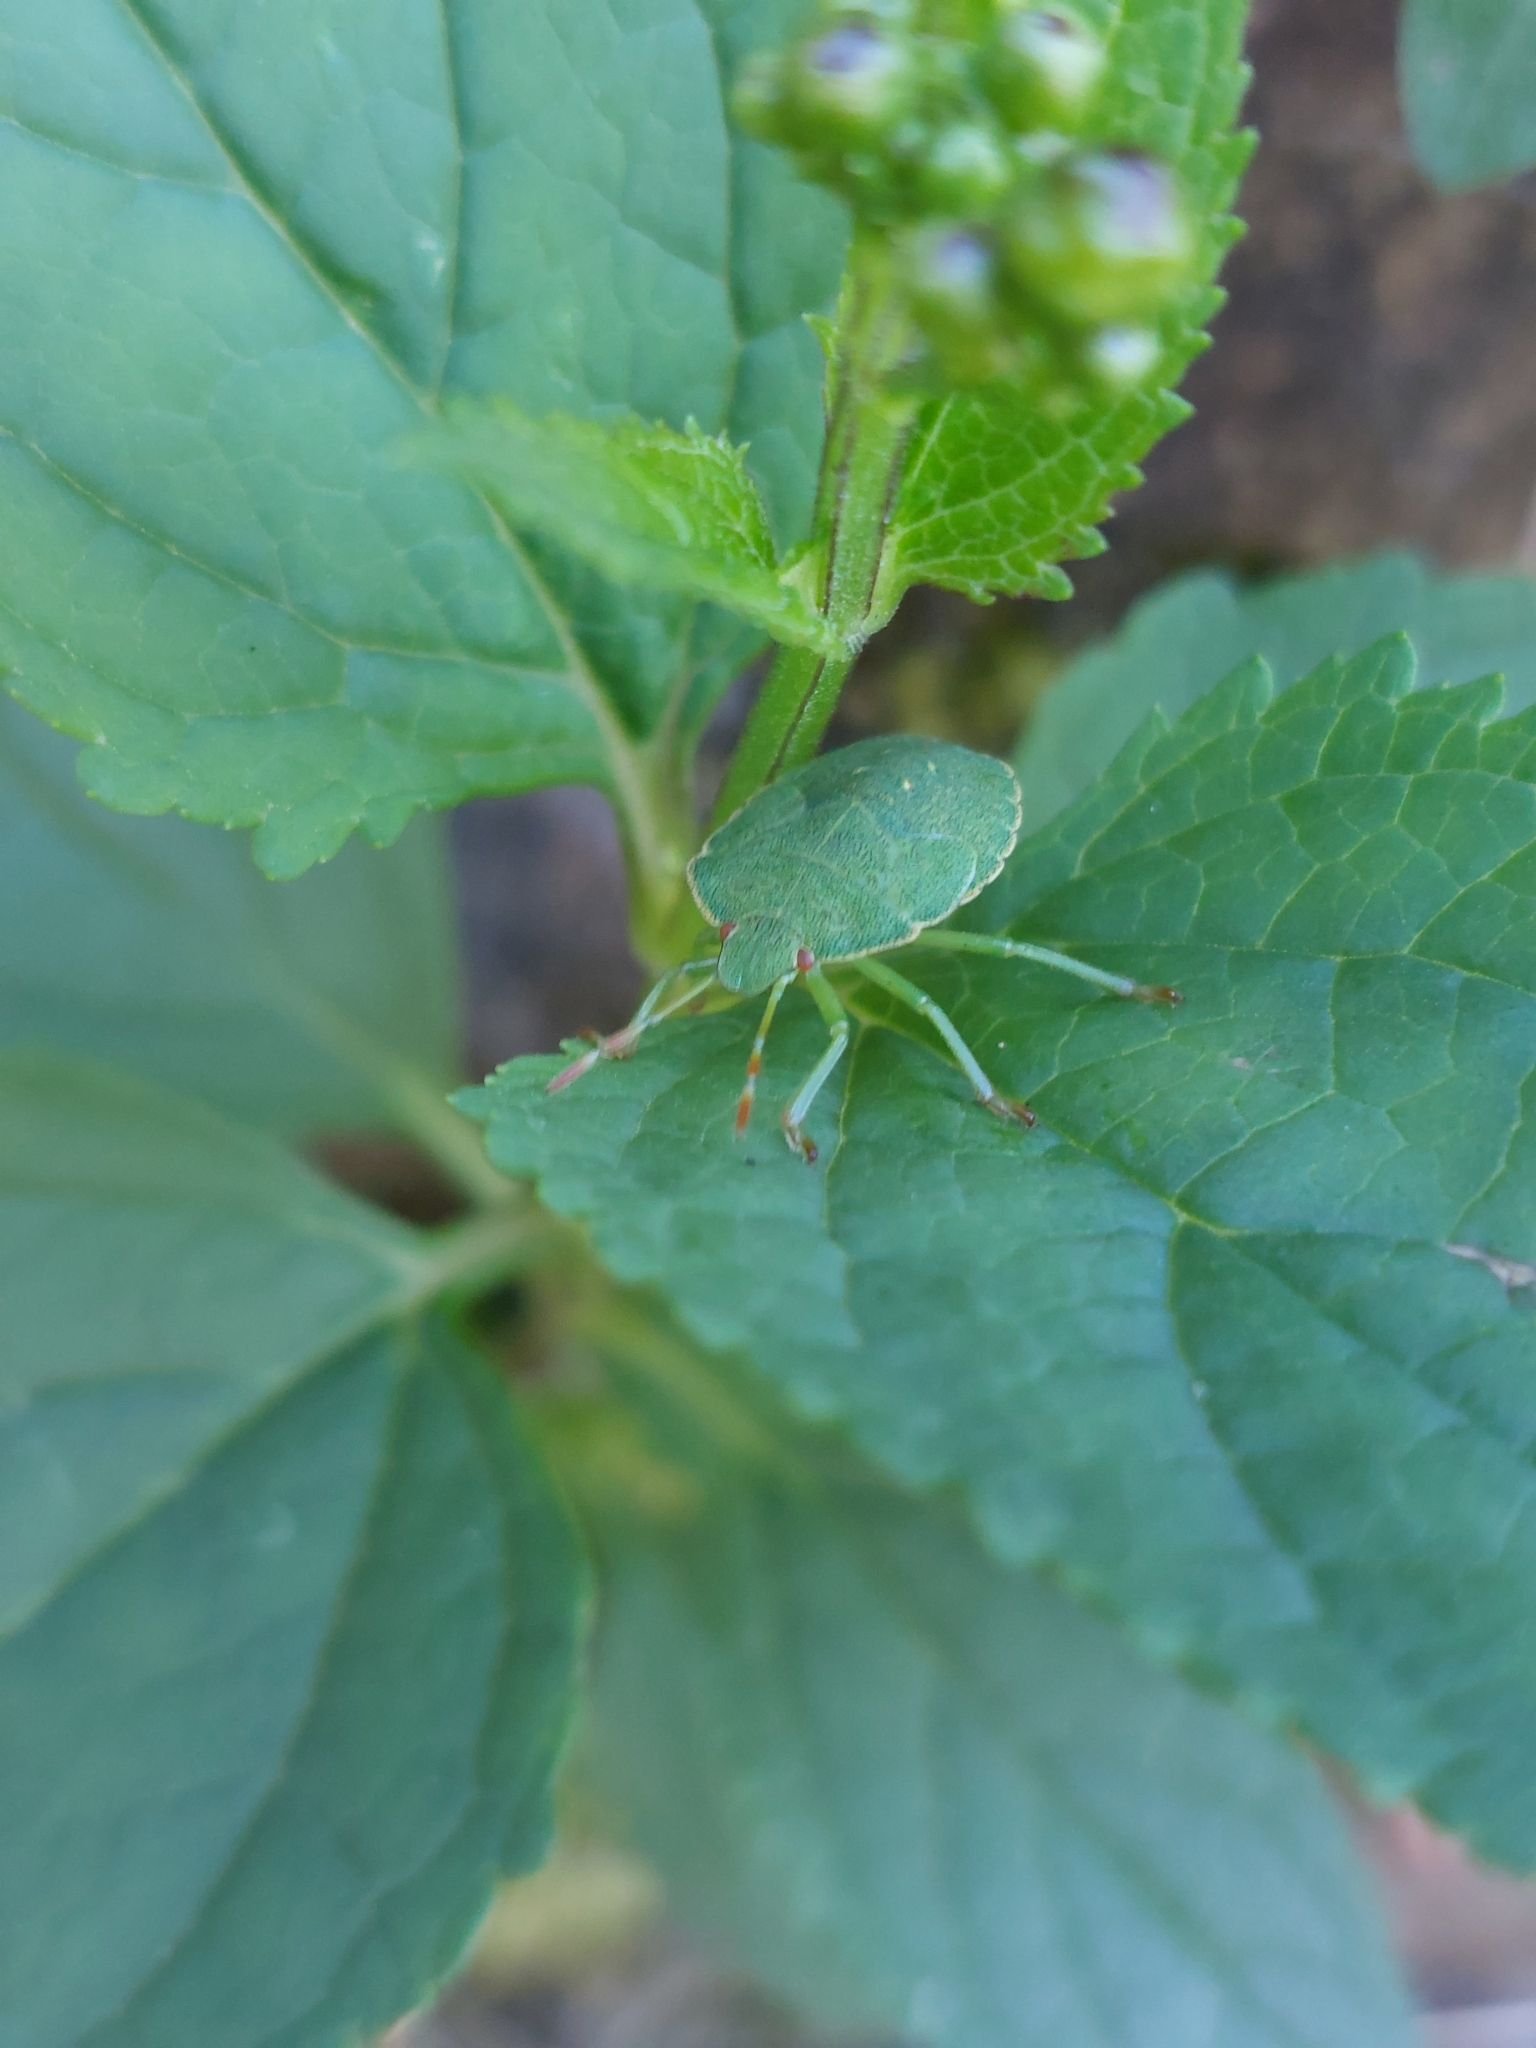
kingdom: Animalia
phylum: Arthropoda
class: Insecta
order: Hemiptera
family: Pentatomidae
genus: Palomena
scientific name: Palomena prasina
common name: Green shieldbug
